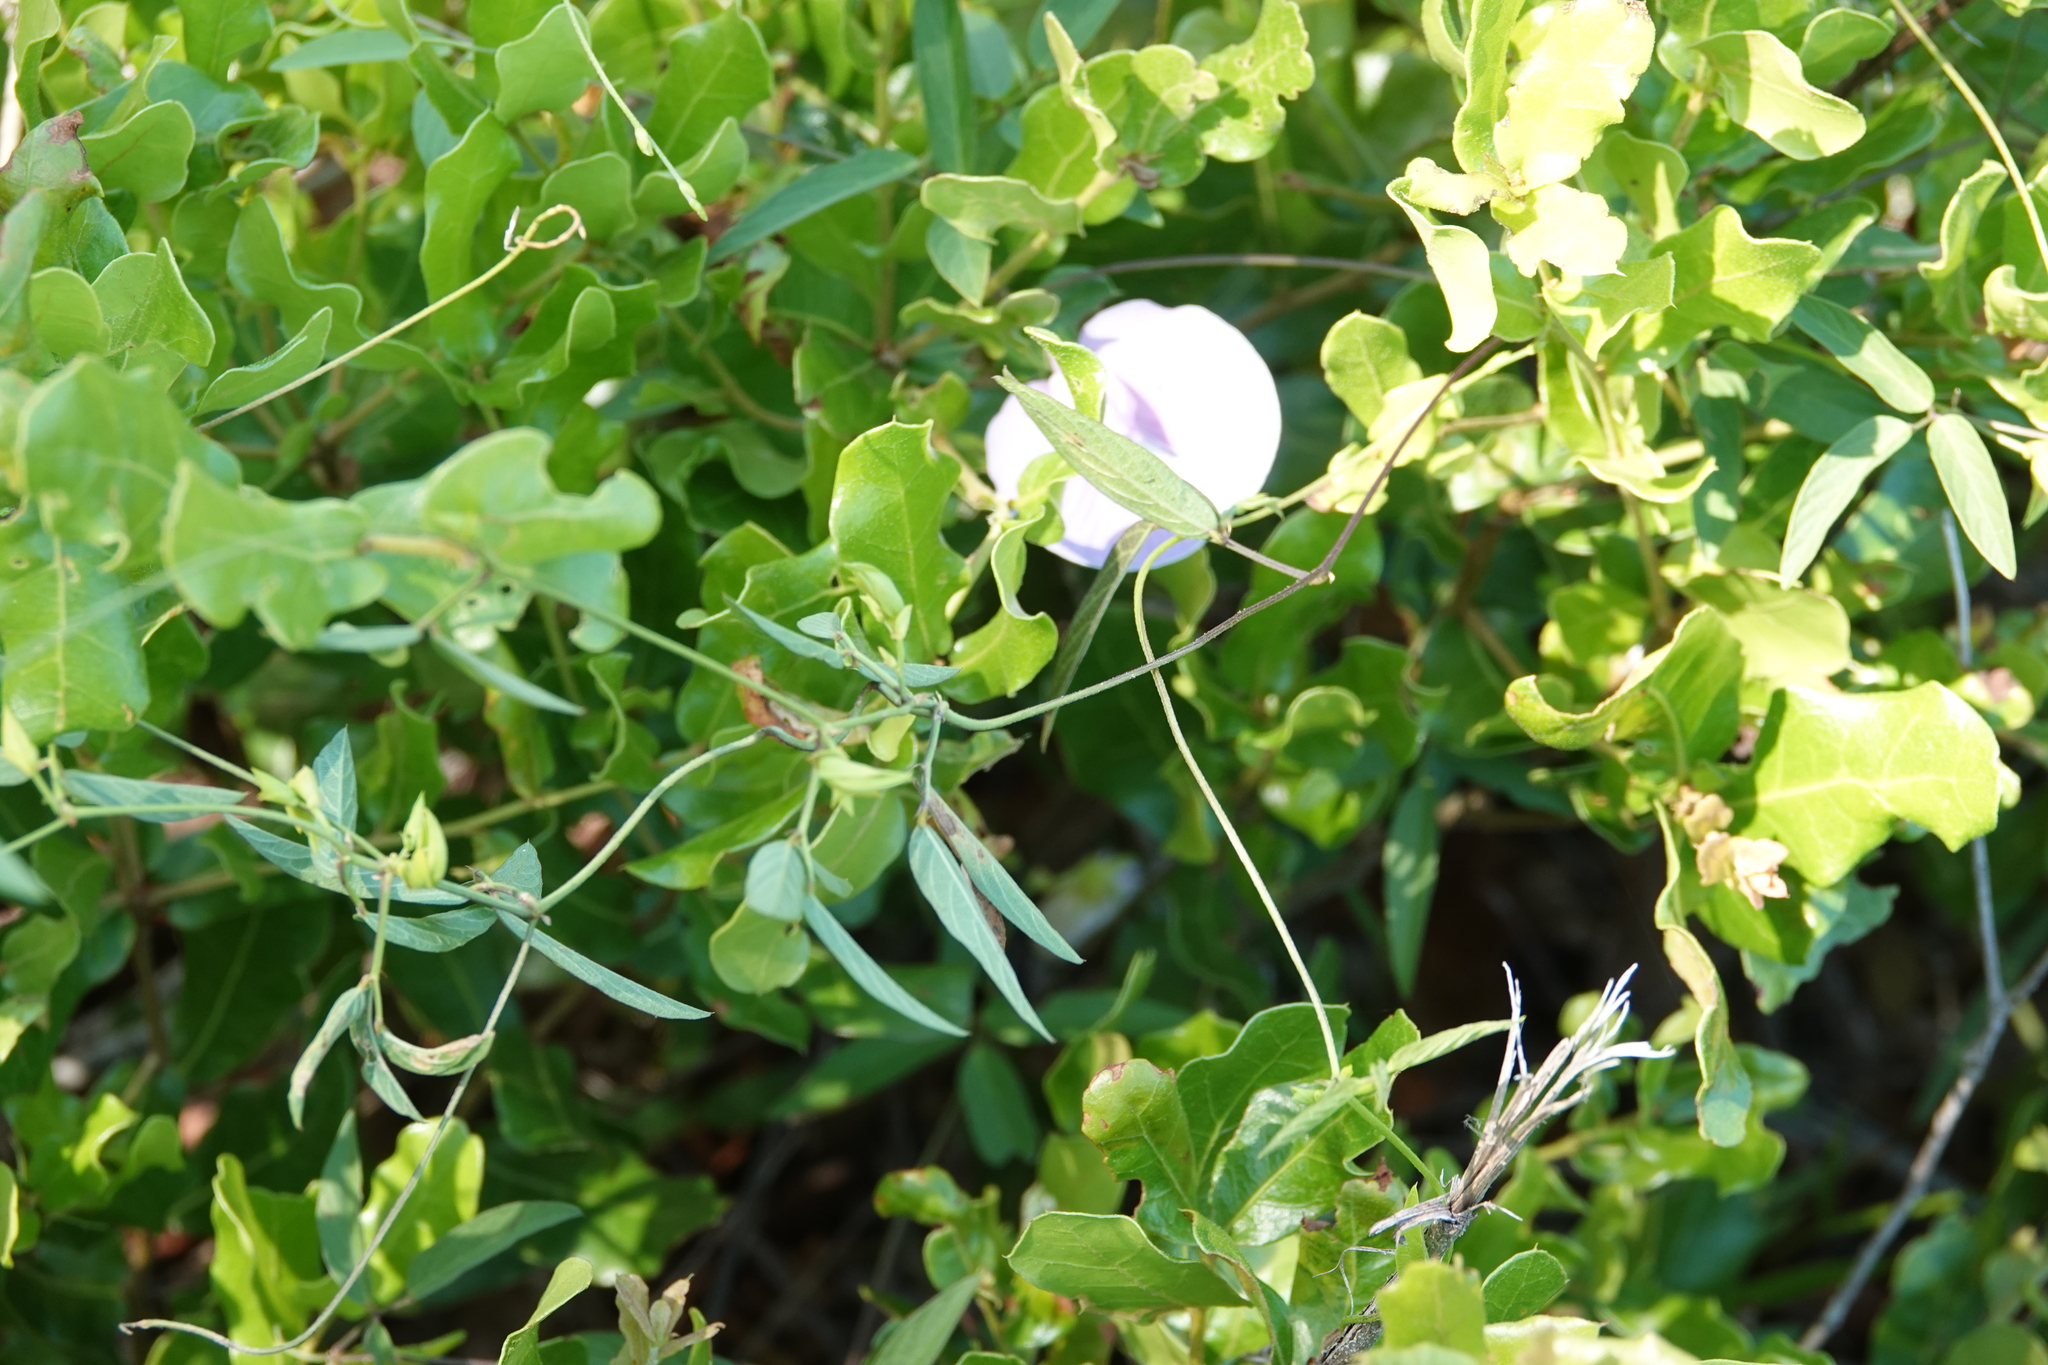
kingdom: Plantae
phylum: Tracheophyta
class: Magnoliopsida
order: Fabales
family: Fabaceae
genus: Centrosema
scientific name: Centrosema virginianum
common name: Butterfly-pea
